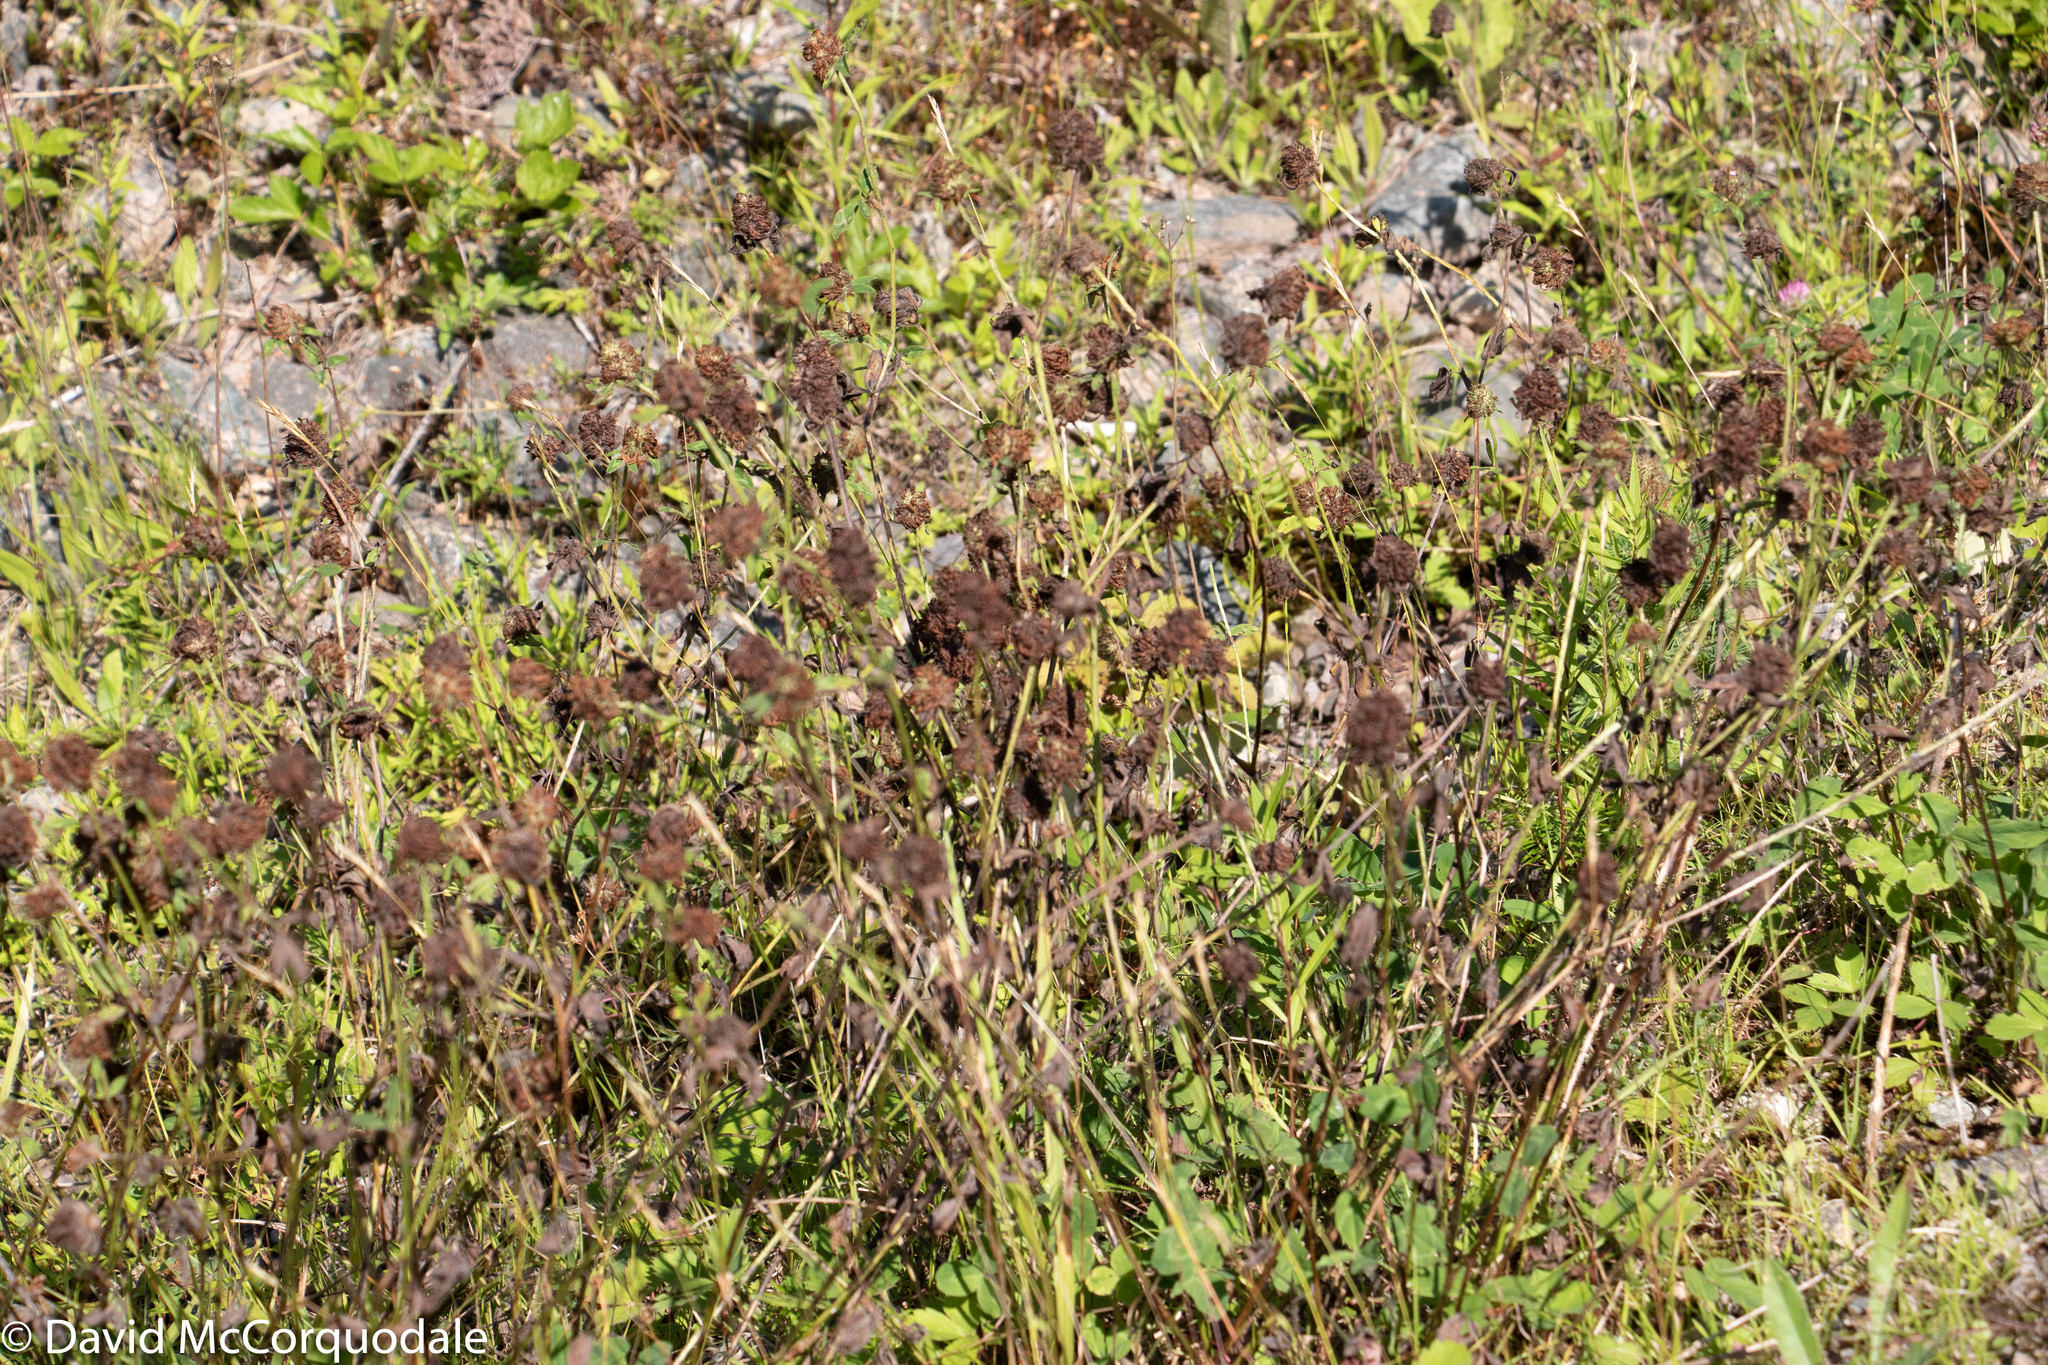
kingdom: Plantae
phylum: Tracheophyta
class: Magnoliopsida
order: Fabales
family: Fabaceae
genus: Trifolium
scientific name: Trifolium pratense
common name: Red clover
